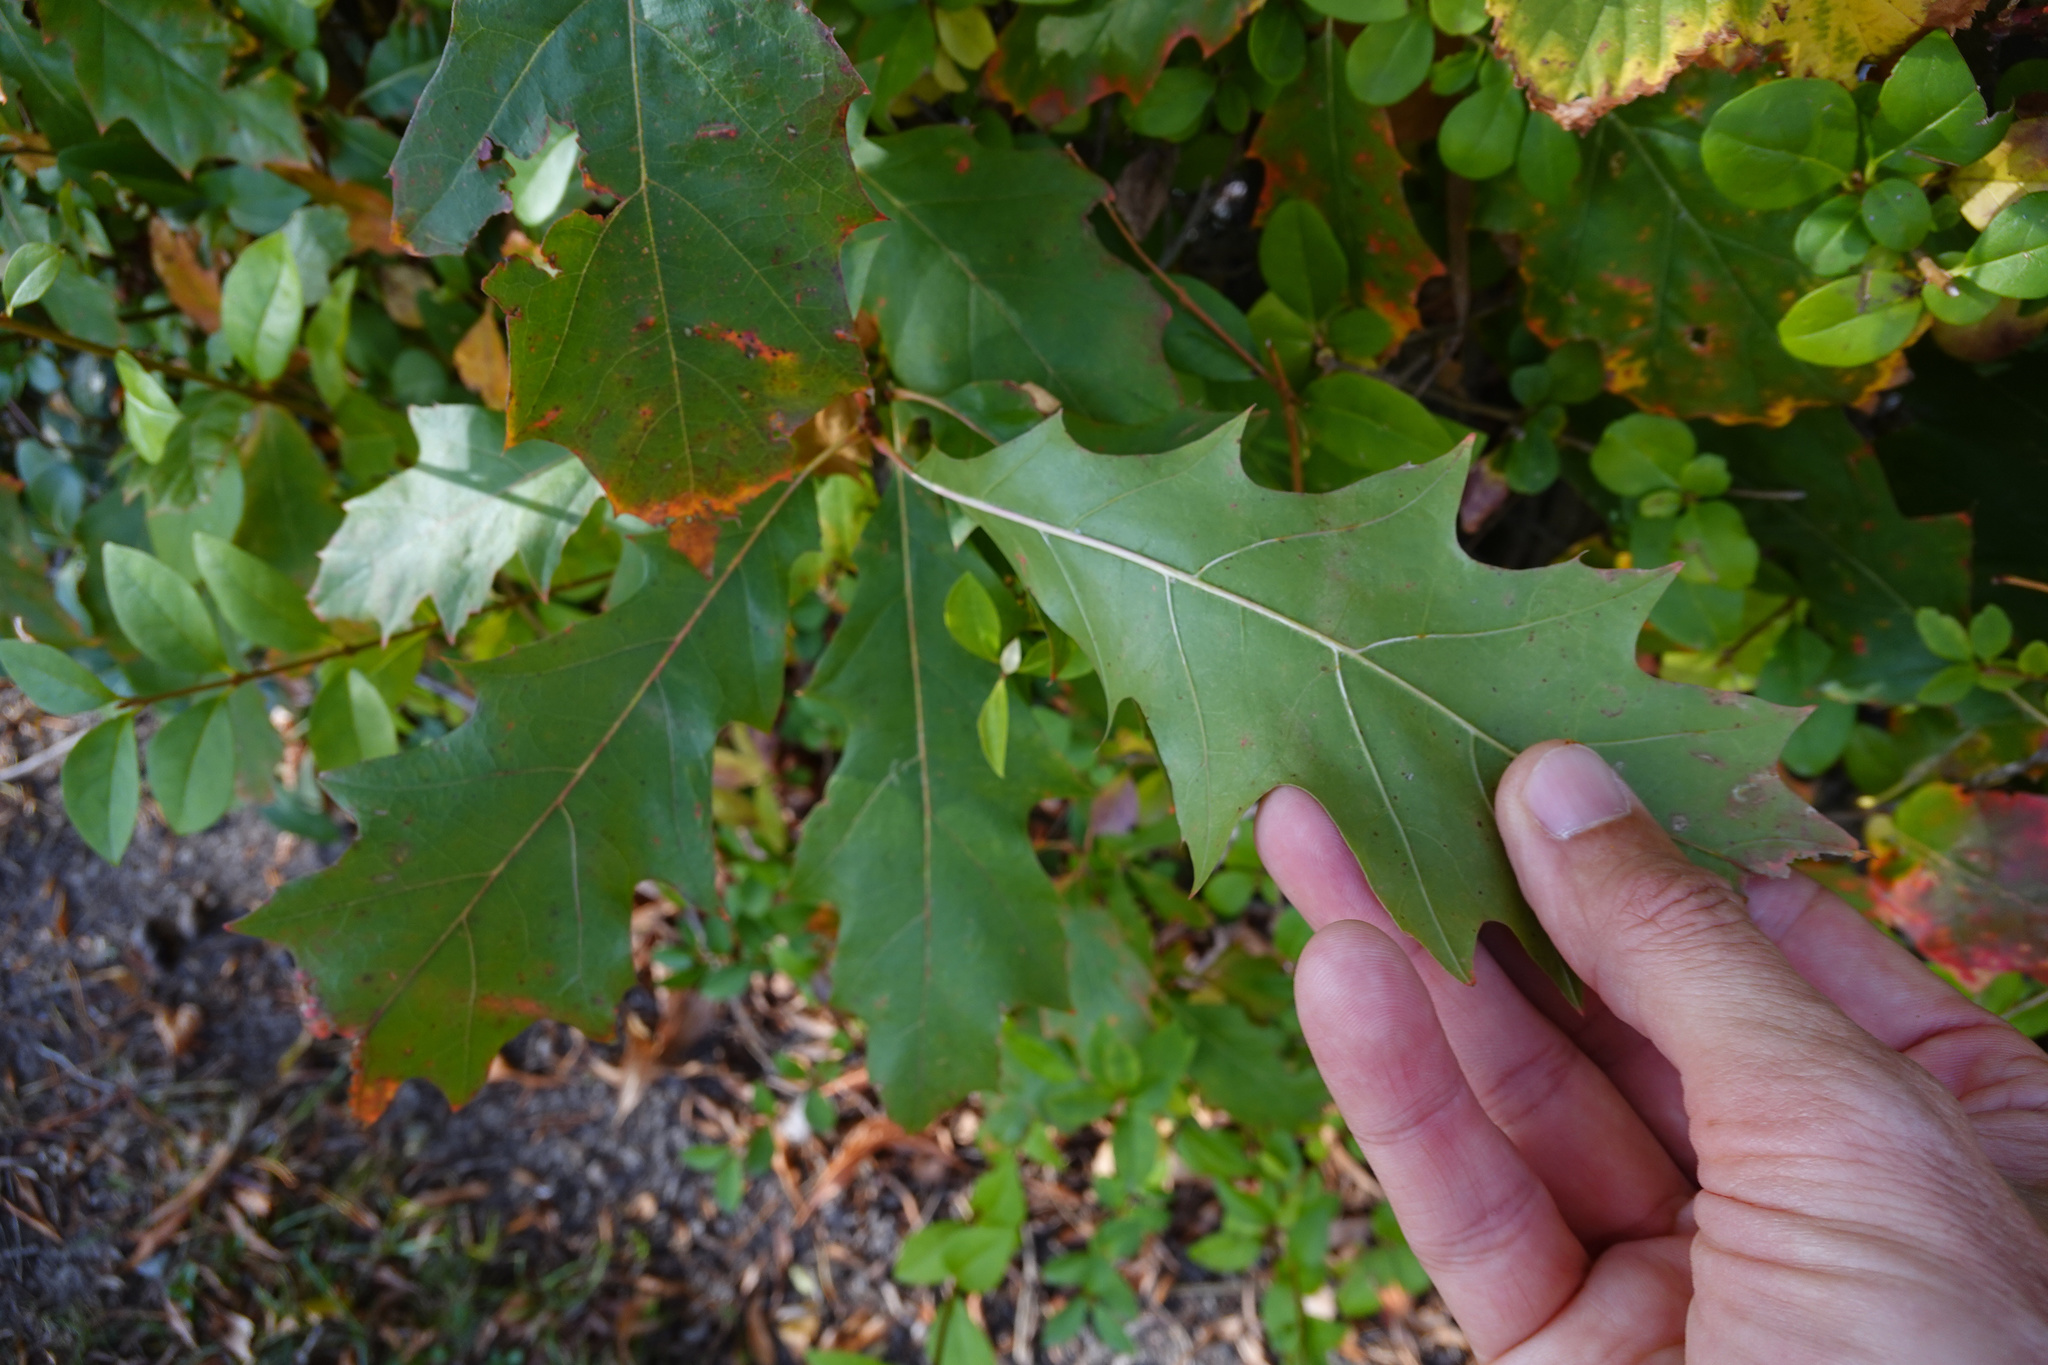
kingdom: Plantae
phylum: Tracheophyta
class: Magnoliopsida
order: Fagales
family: Fagaceae
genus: Quercus
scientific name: Quercus rubra
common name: Red oak
